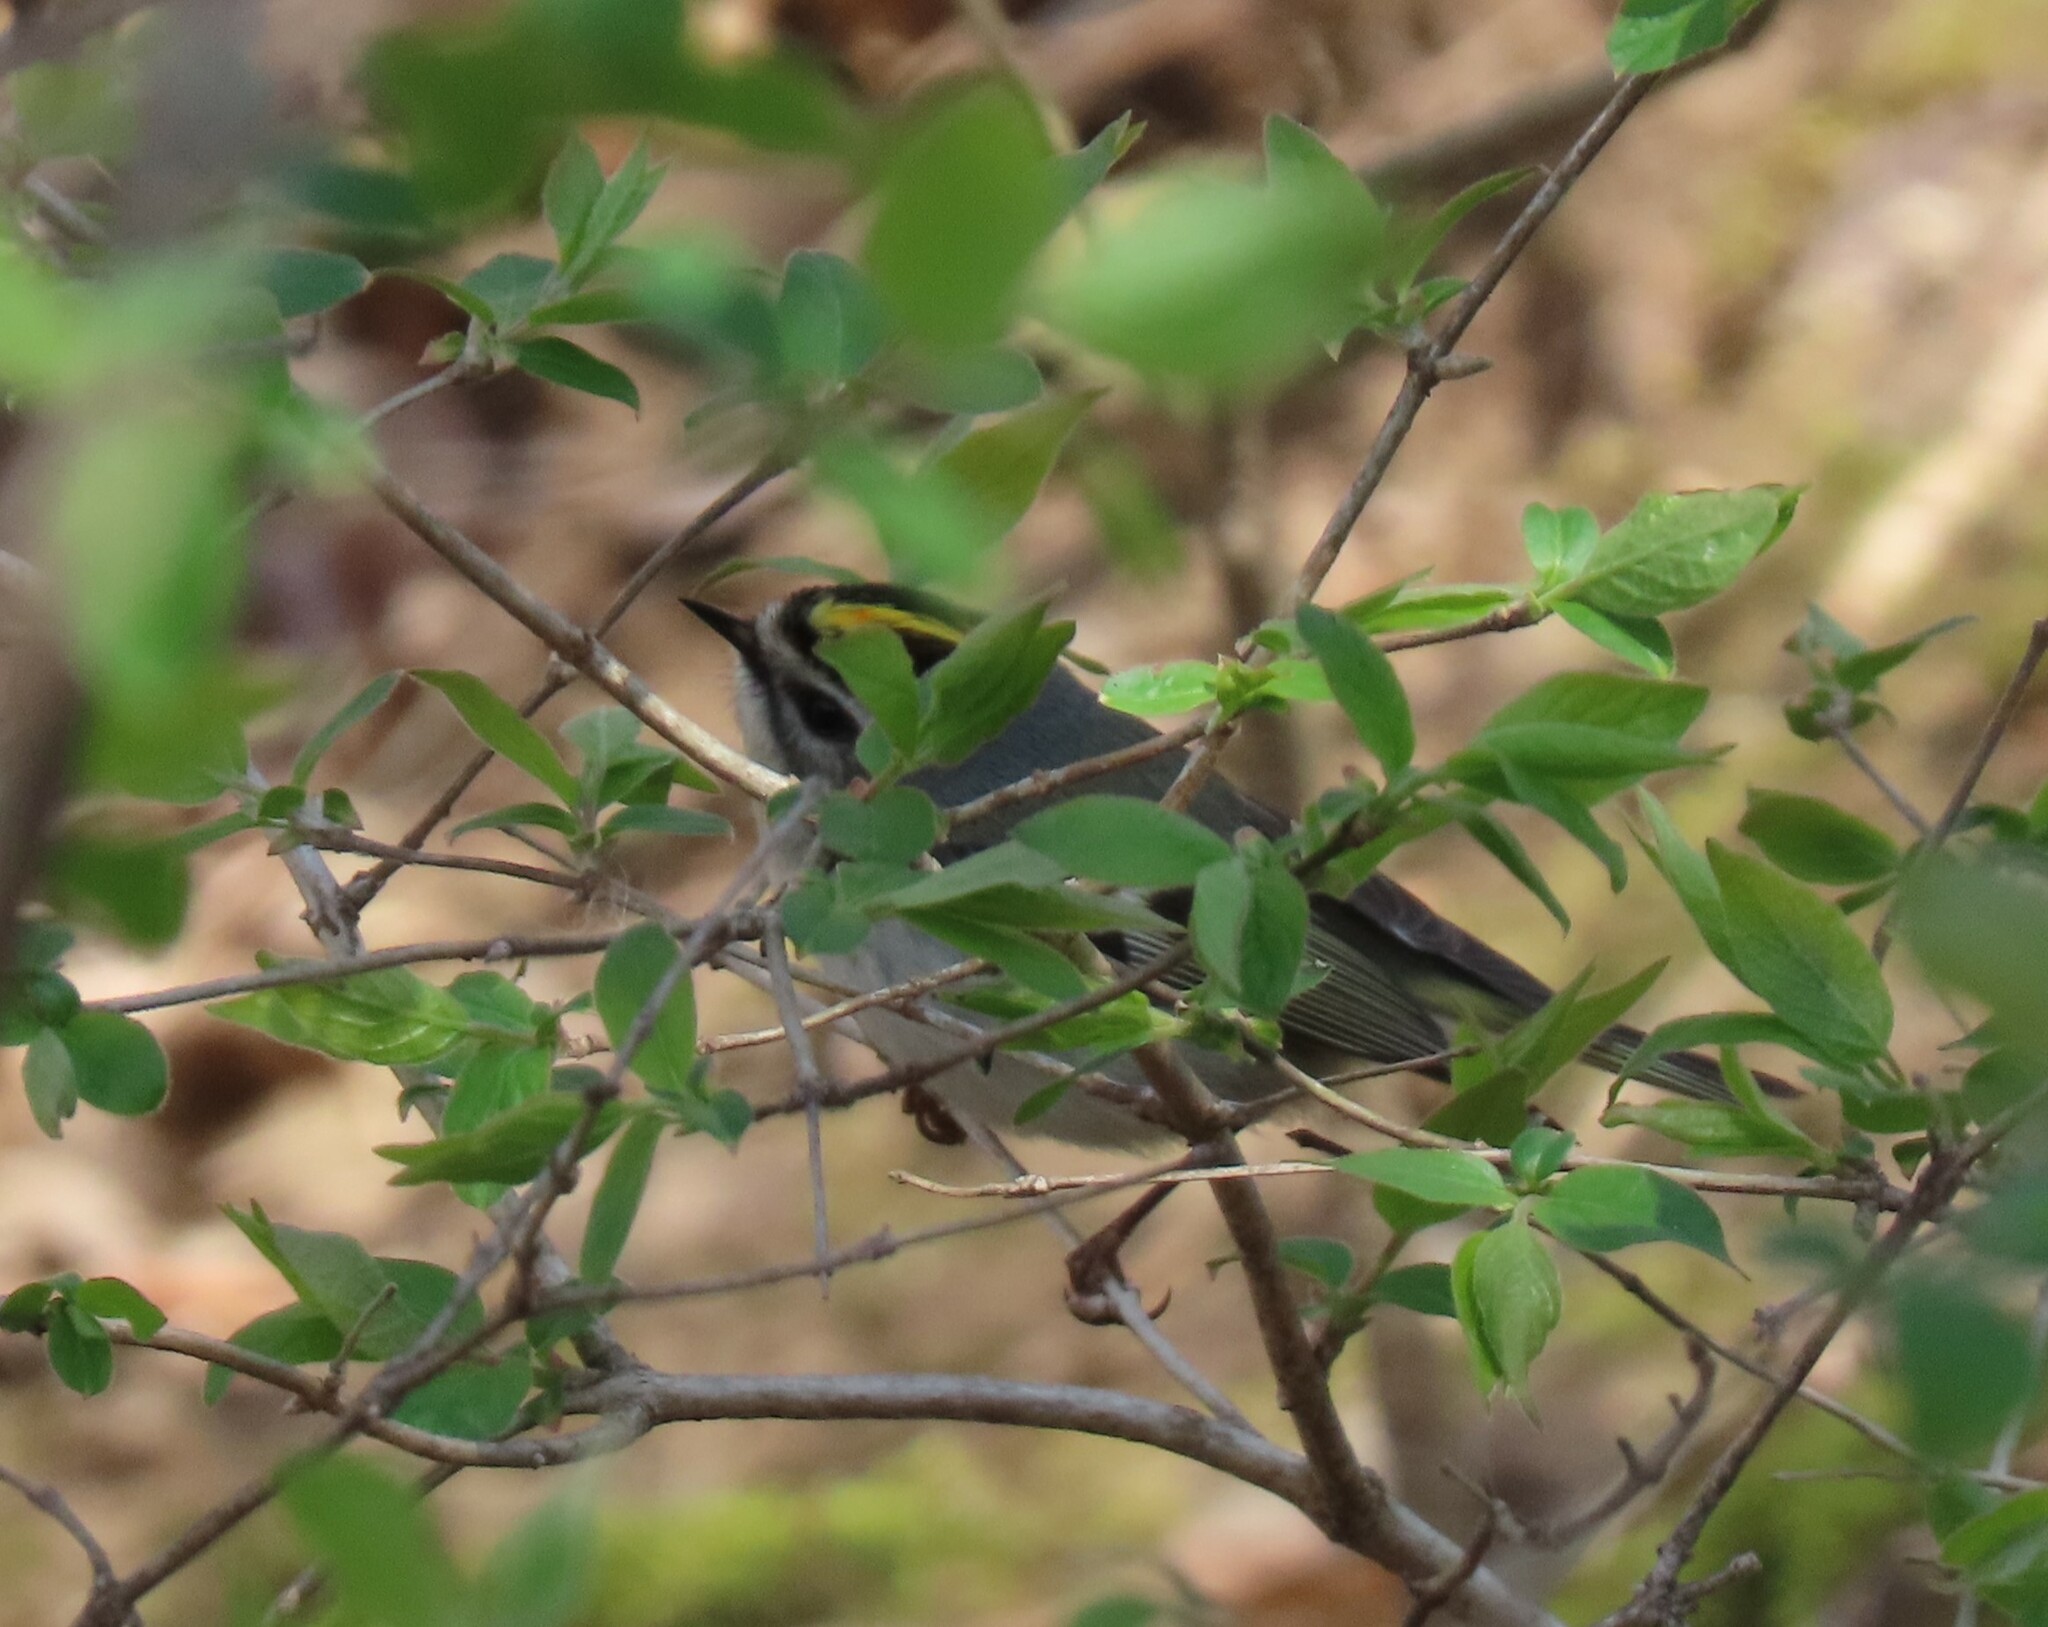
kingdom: Animalia
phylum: Chordata
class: Aves
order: Passeriformes
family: Regulidae
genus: Regulus
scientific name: Regulus satrapa
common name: Golden-crowned kinglet
